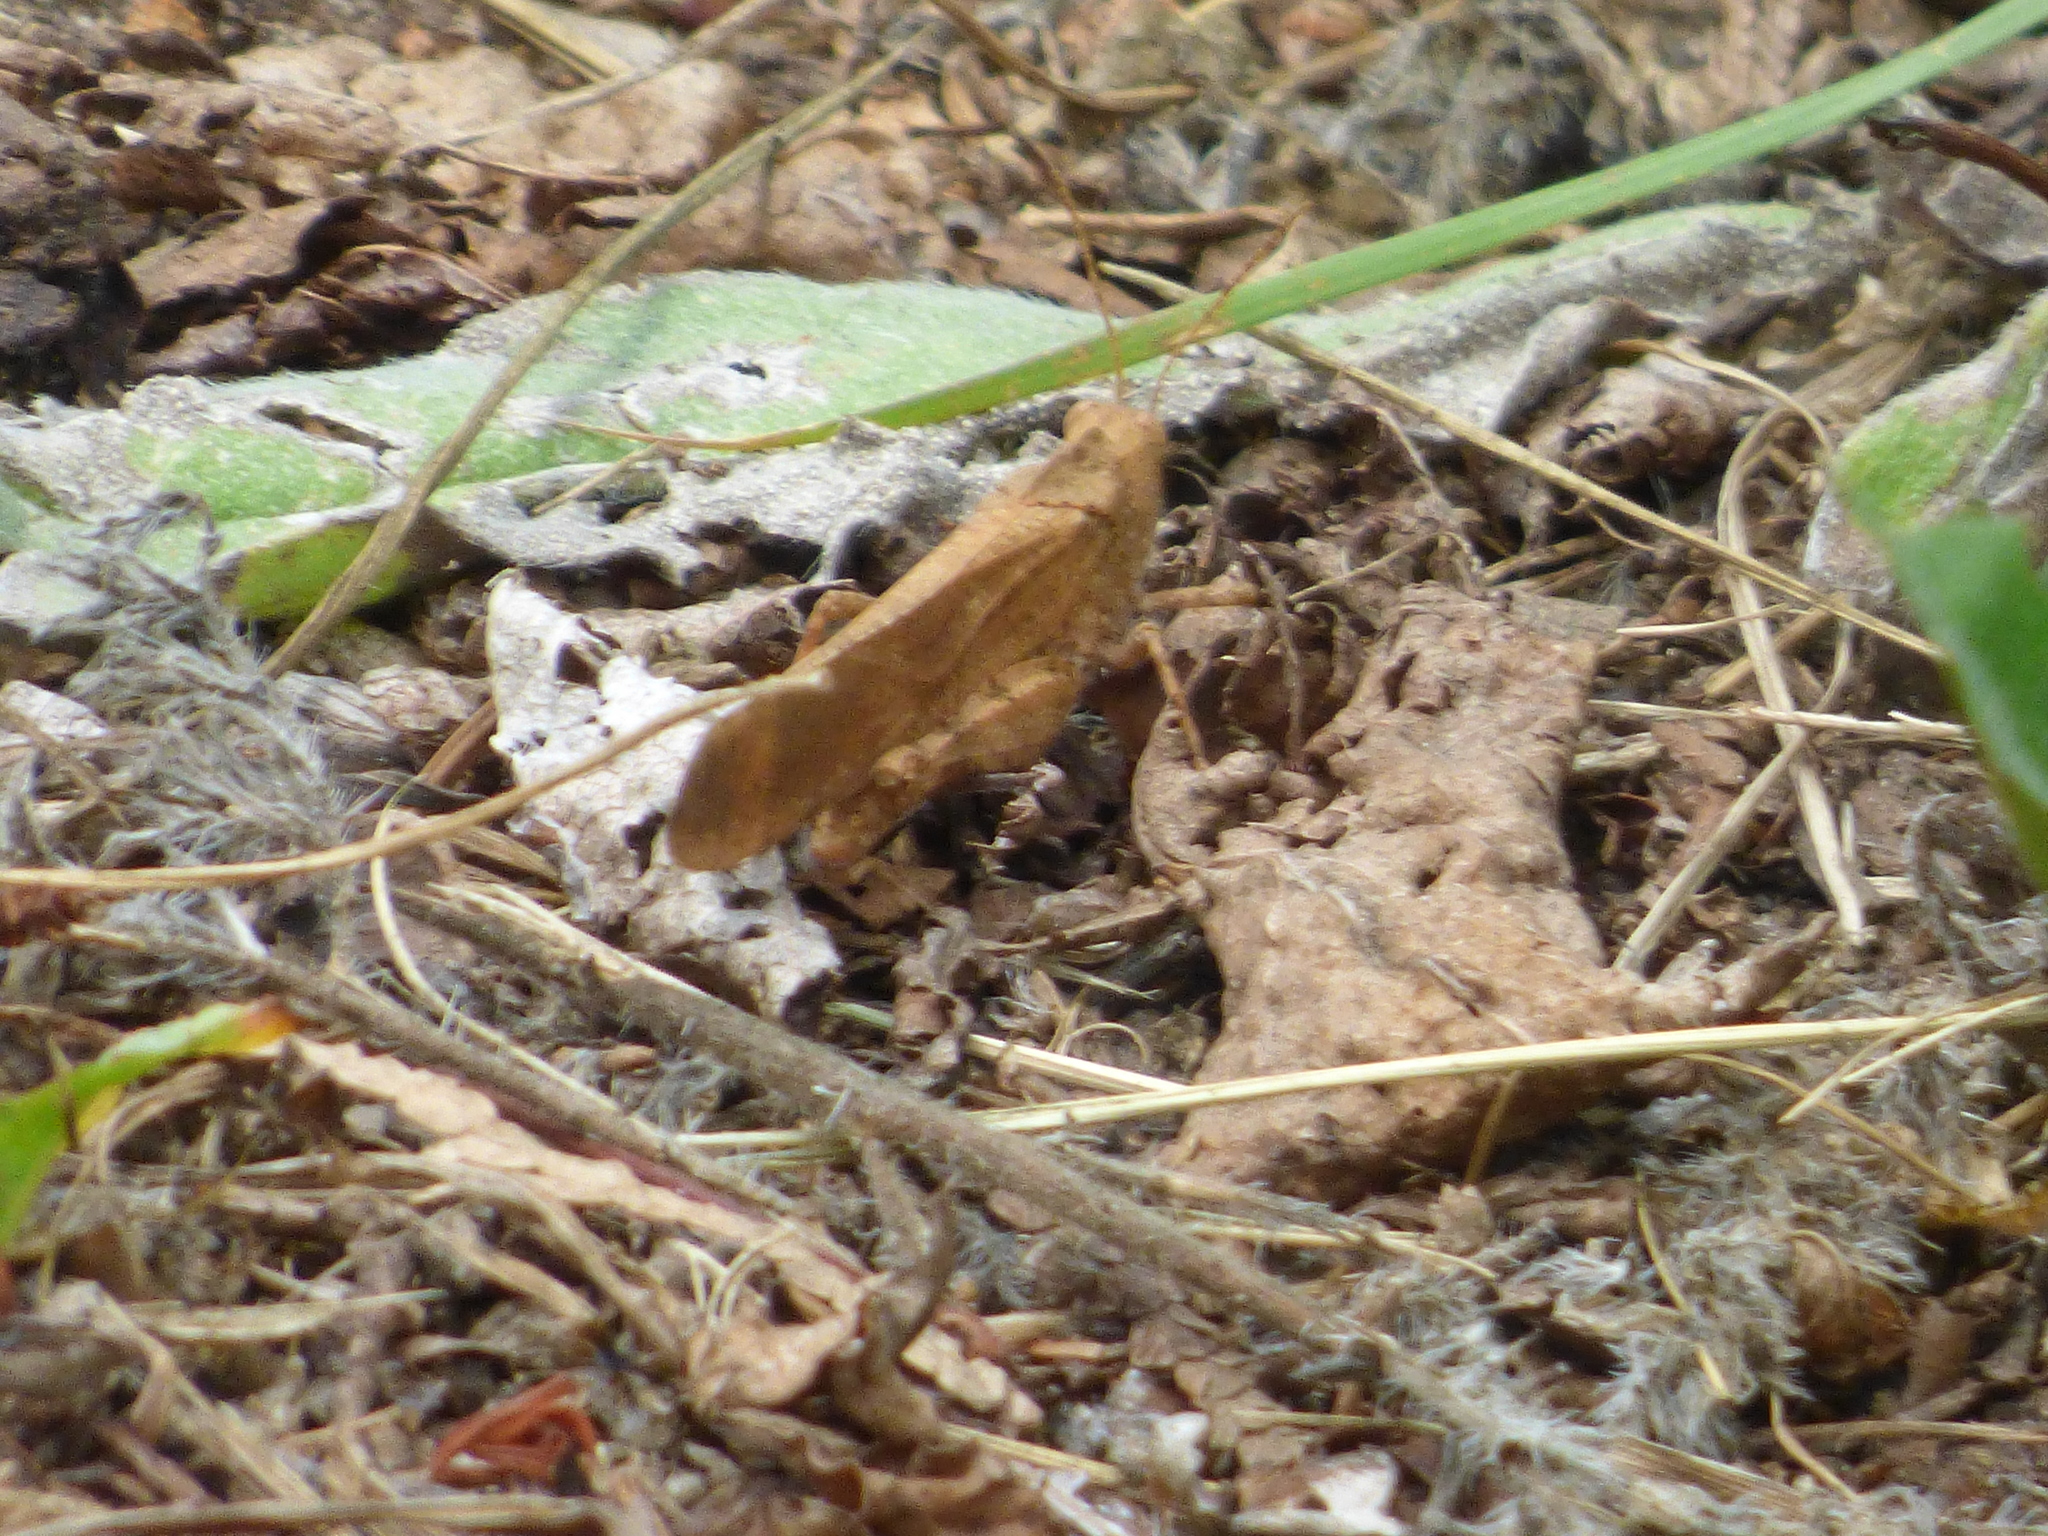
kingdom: Animalia
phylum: Arthropoda
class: Insecta
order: Orthoptera
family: Acrididae
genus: Dissosteira
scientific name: Dissosteira carolina
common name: Carolina grasshopper
